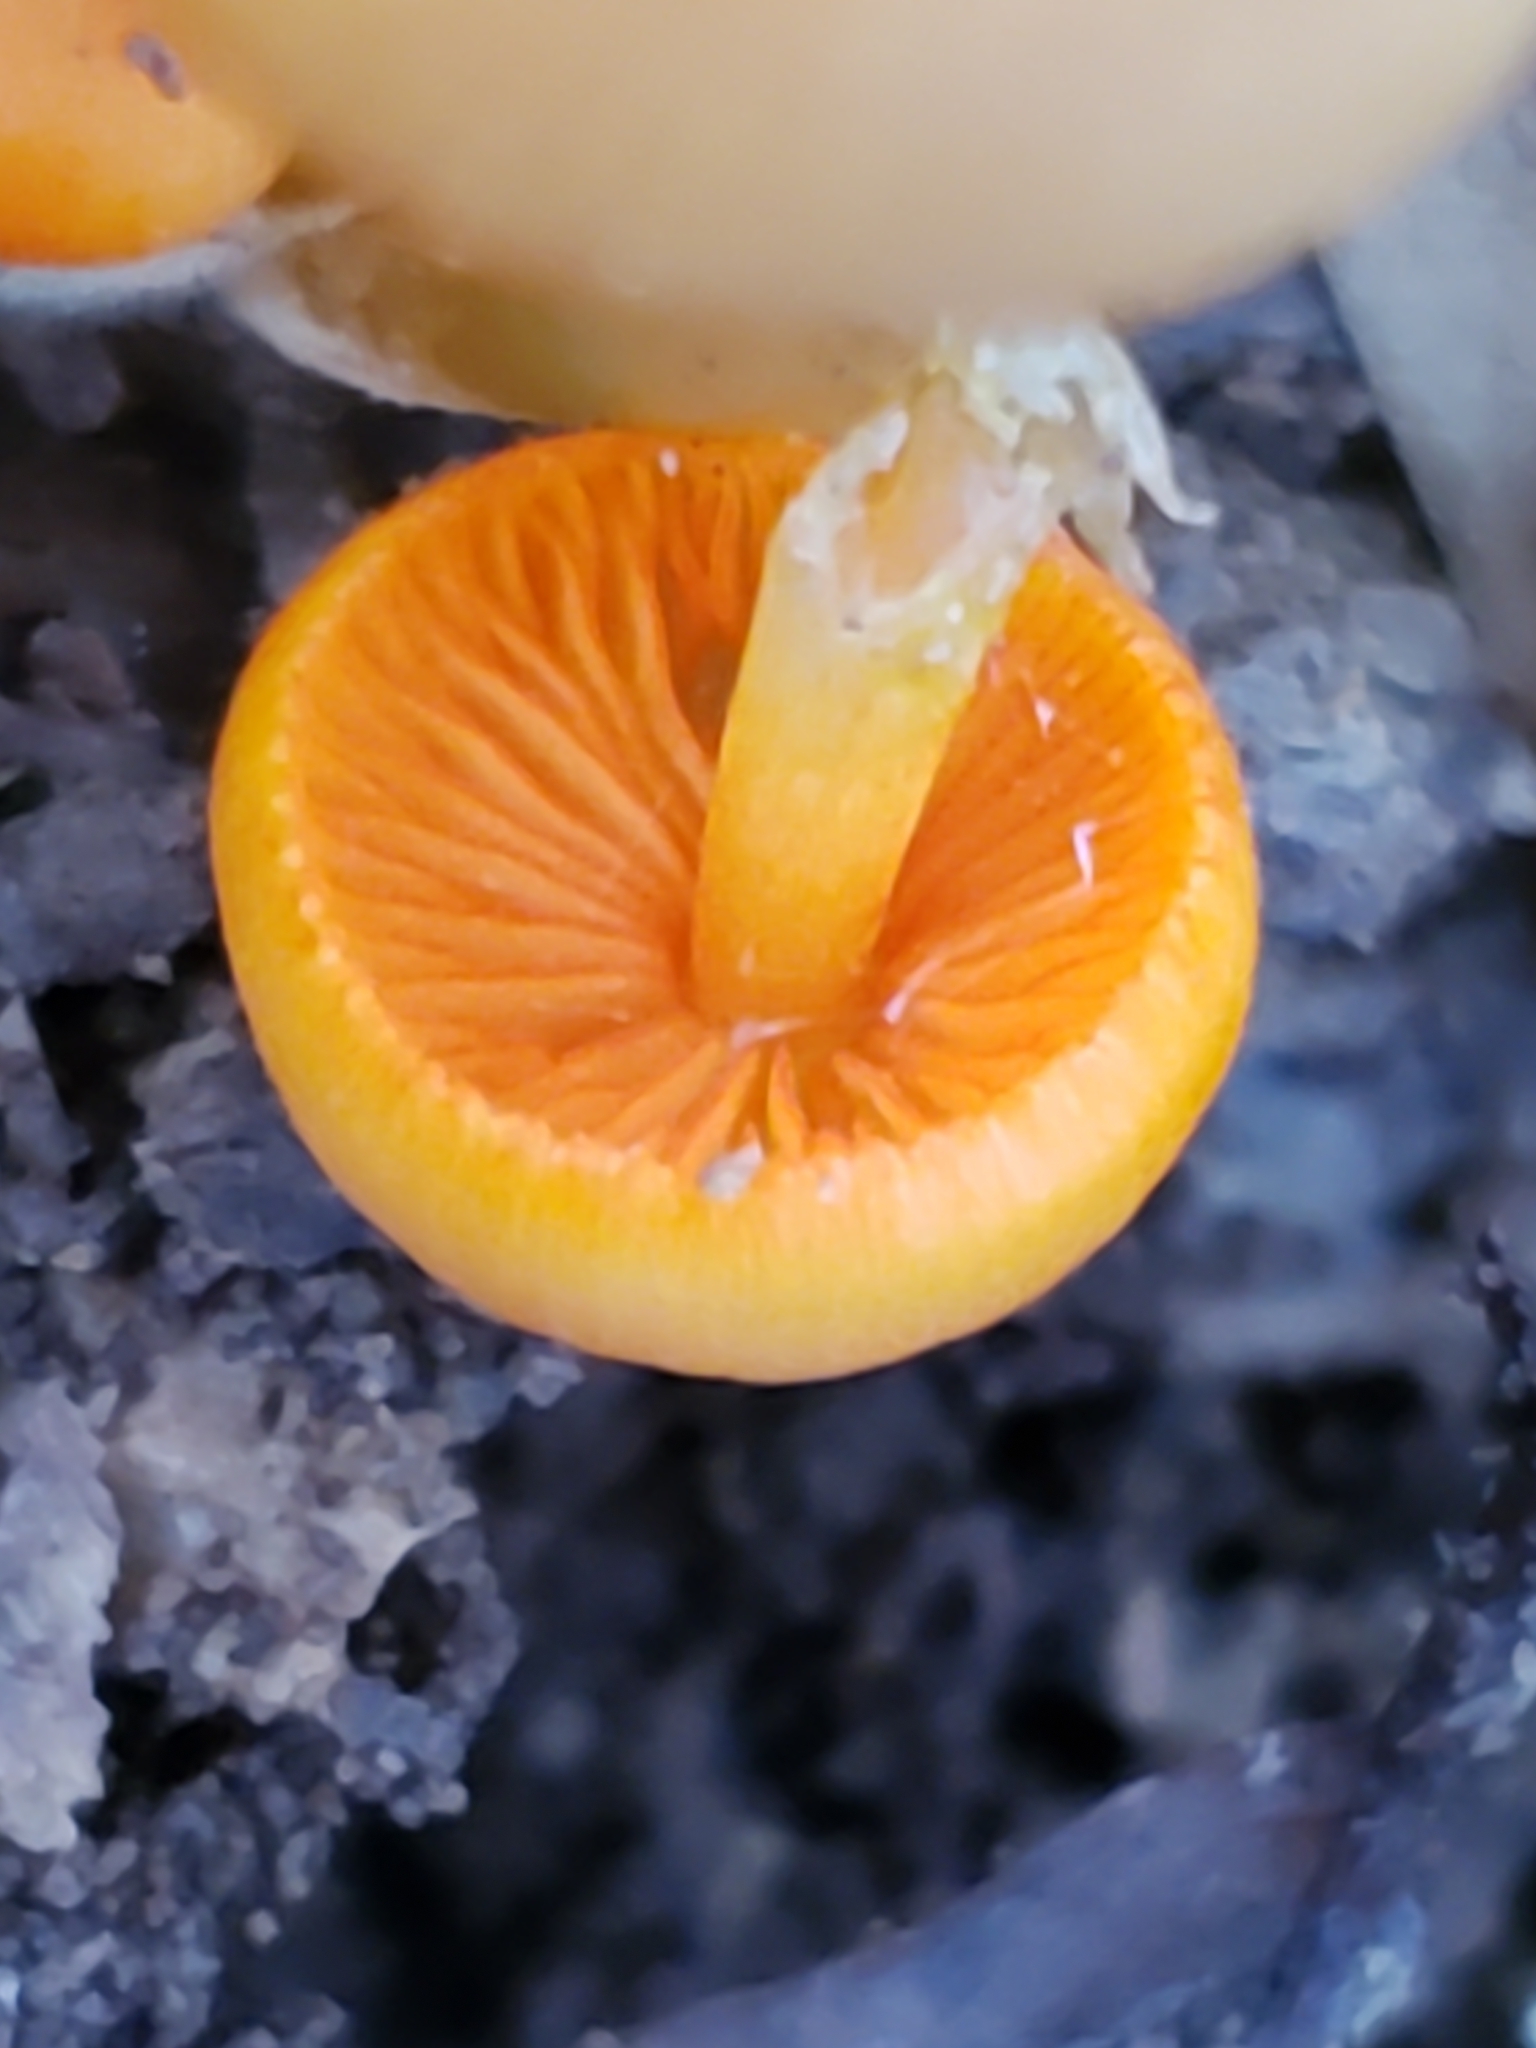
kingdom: Fungi
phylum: Basidiomycota
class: Agaricomycetes
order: Agaricales
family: Mycenaceae
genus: Mycena
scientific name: Mycena leaiana
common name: Orange mycena
